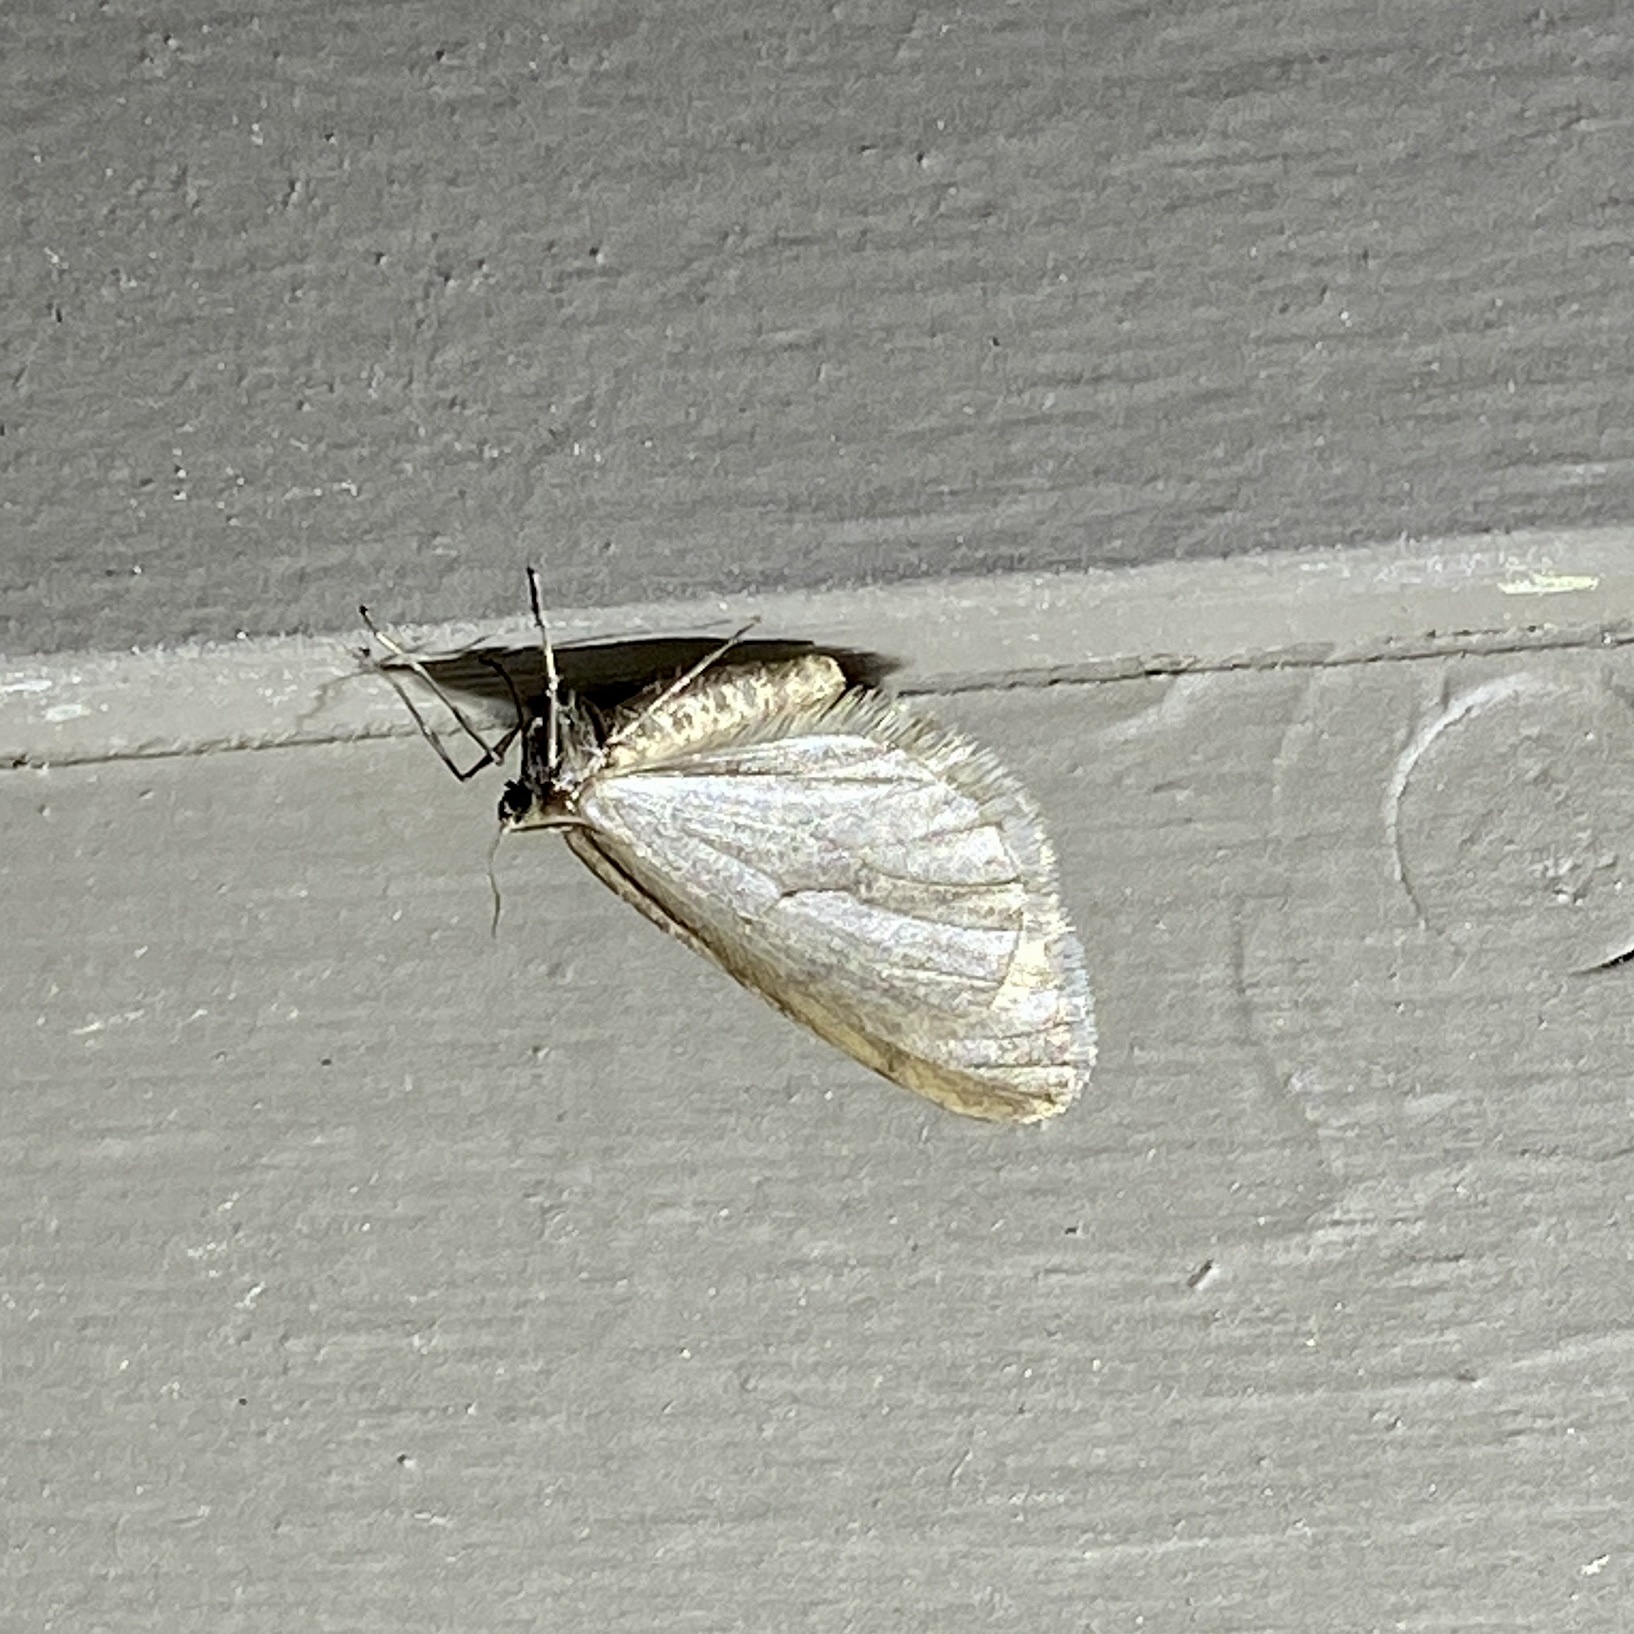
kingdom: Animalia
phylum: Arthropoda
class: Insecta
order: Lepidoptera
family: Geometridae
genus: Operophtera
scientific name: Operophtera bruceata
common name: Bruce spanworm
